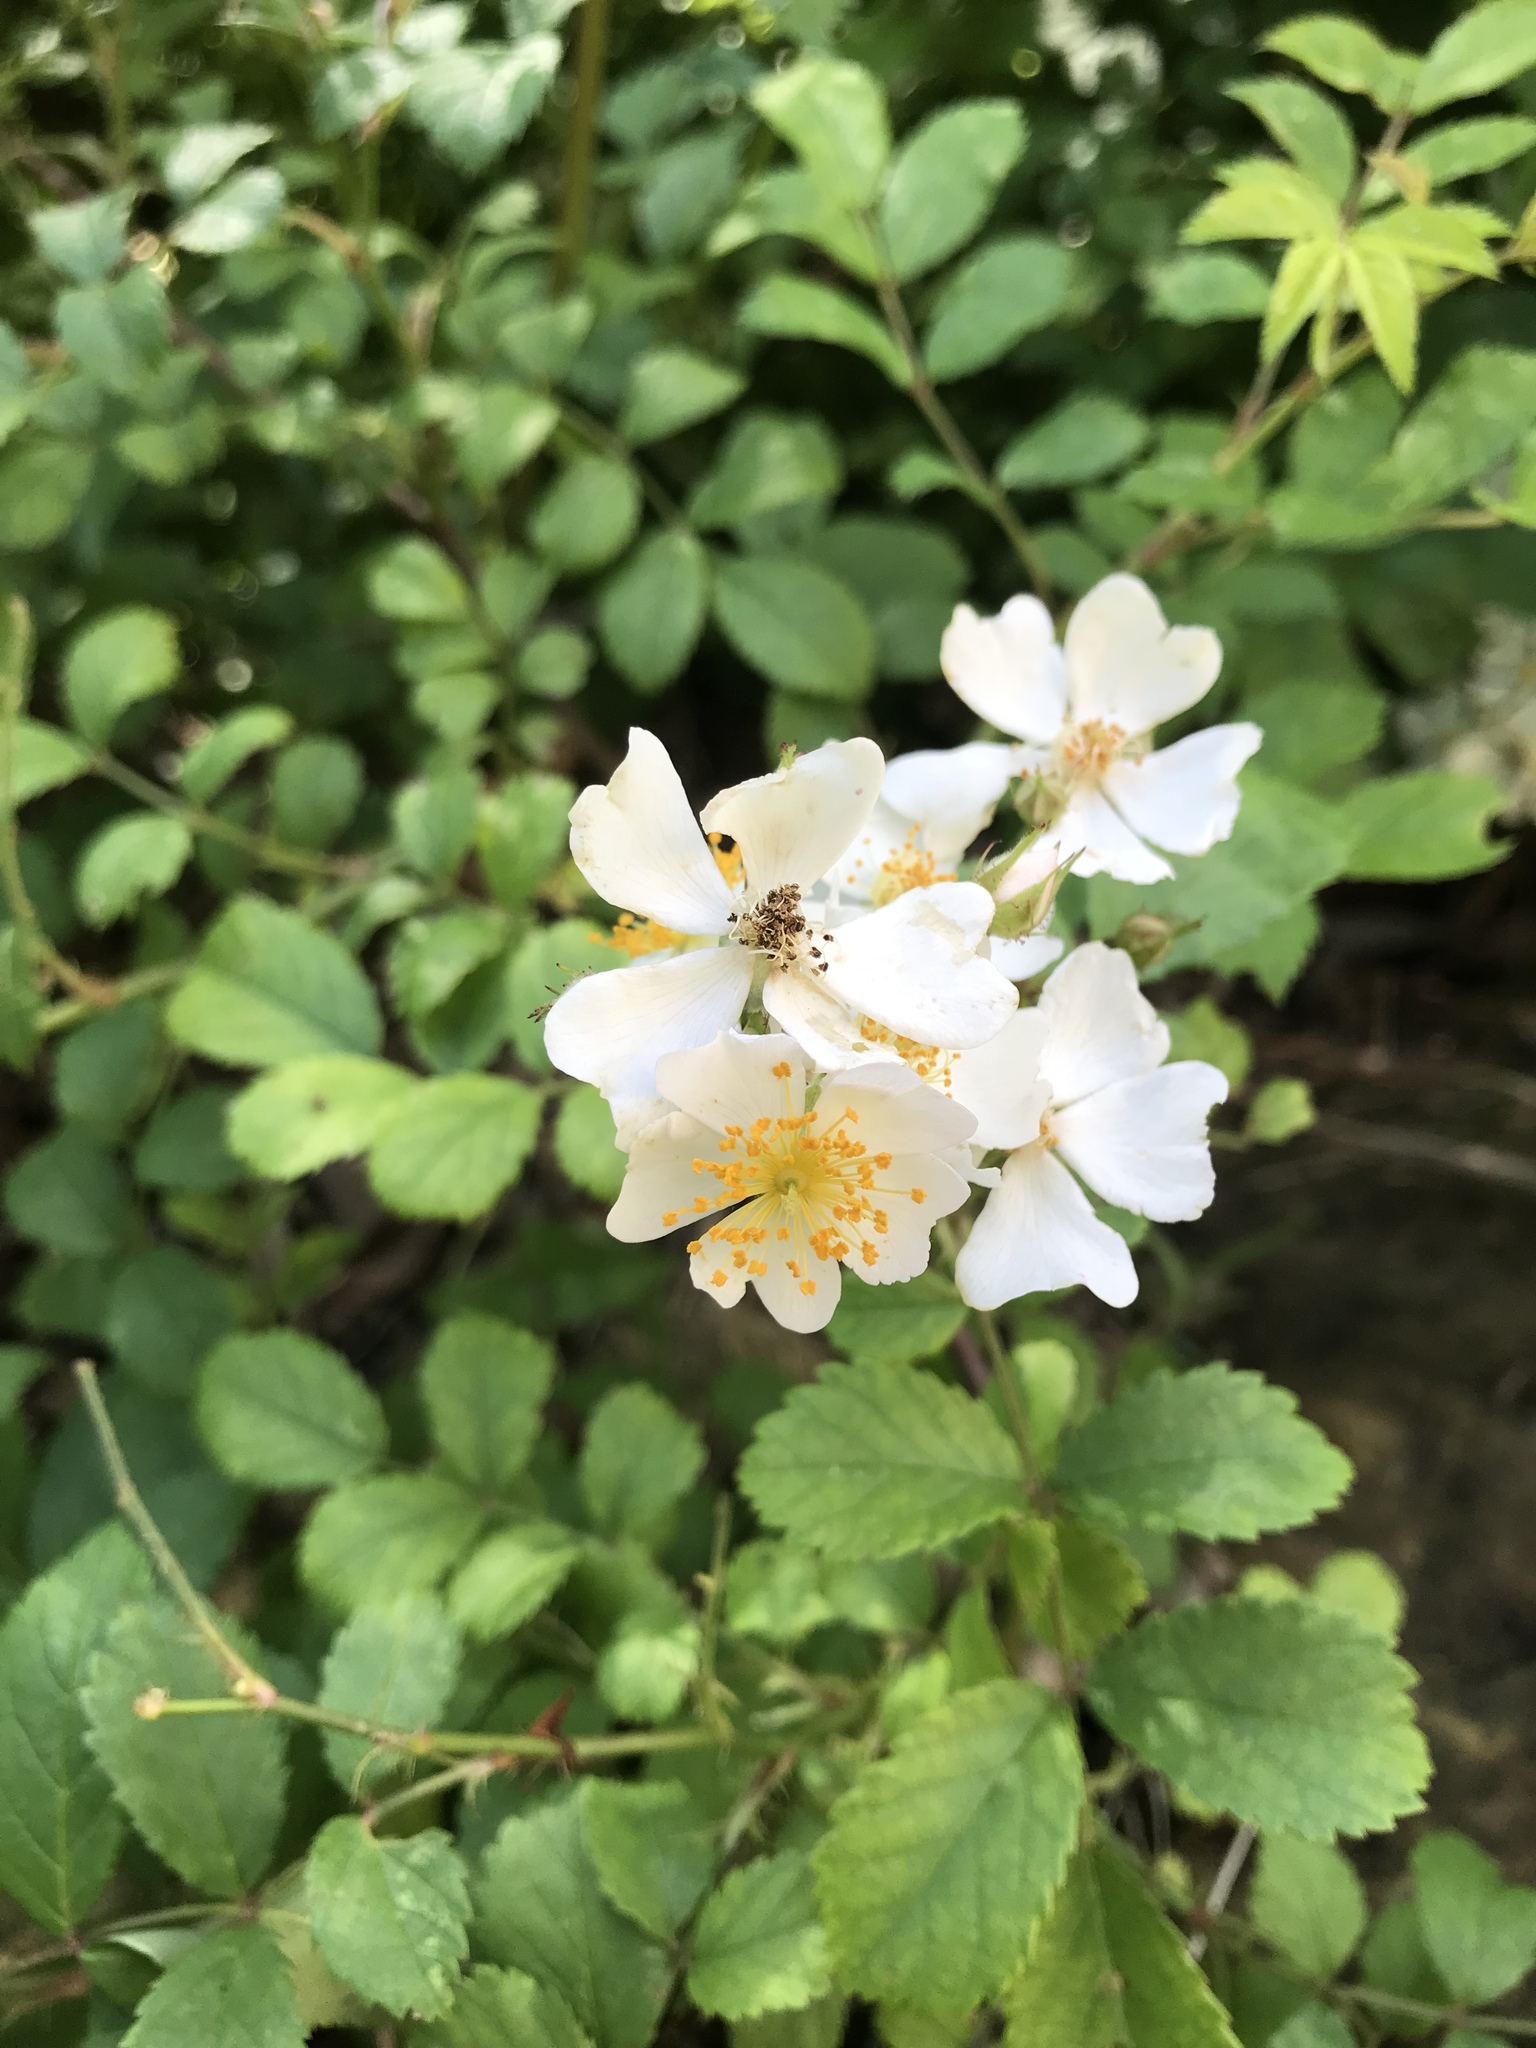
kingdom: Plantae
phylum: Tracheophyta
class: Magnoliopsida
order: Rosales
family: Rosaceae
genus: Rosa
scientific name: Rosa multiflora
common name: Multiflora rose
